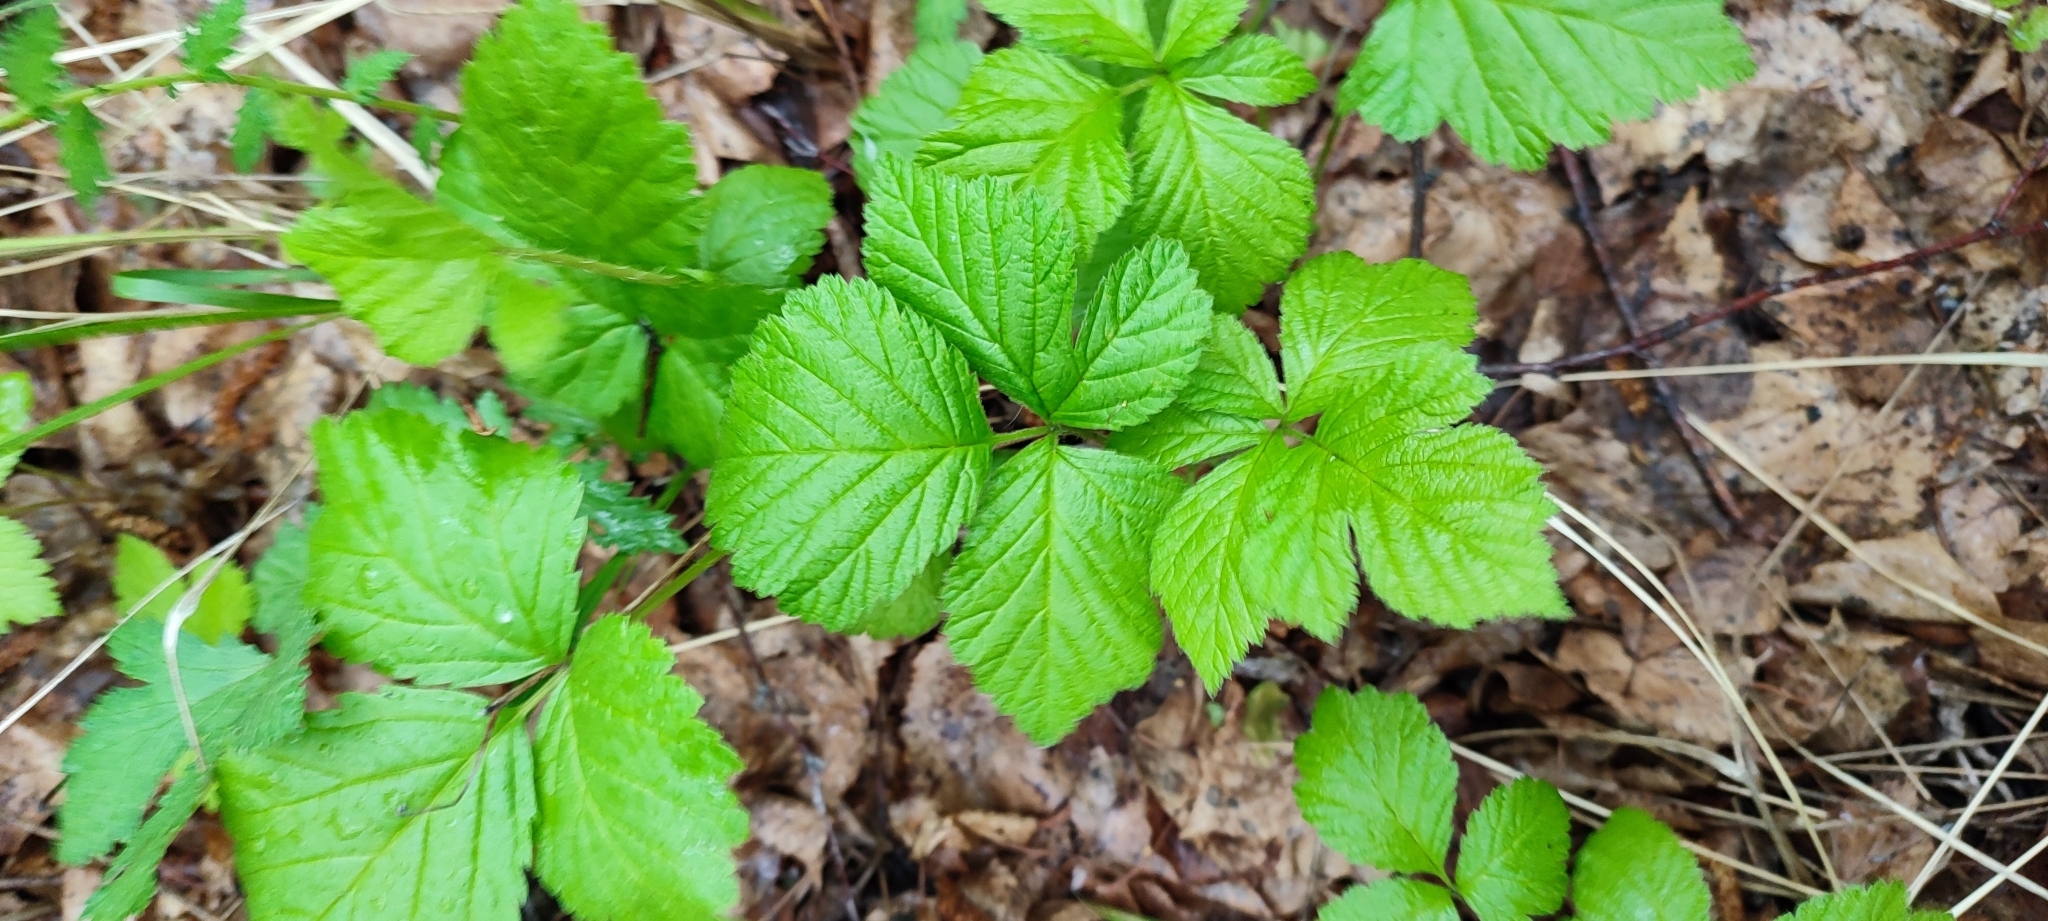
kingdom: Plantae
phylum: Tracheophyta
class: Magnoliopsida
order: Rosales
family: Rosaceae
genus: Rubus
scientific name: Rubus saxatilis
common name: Stone bramble
